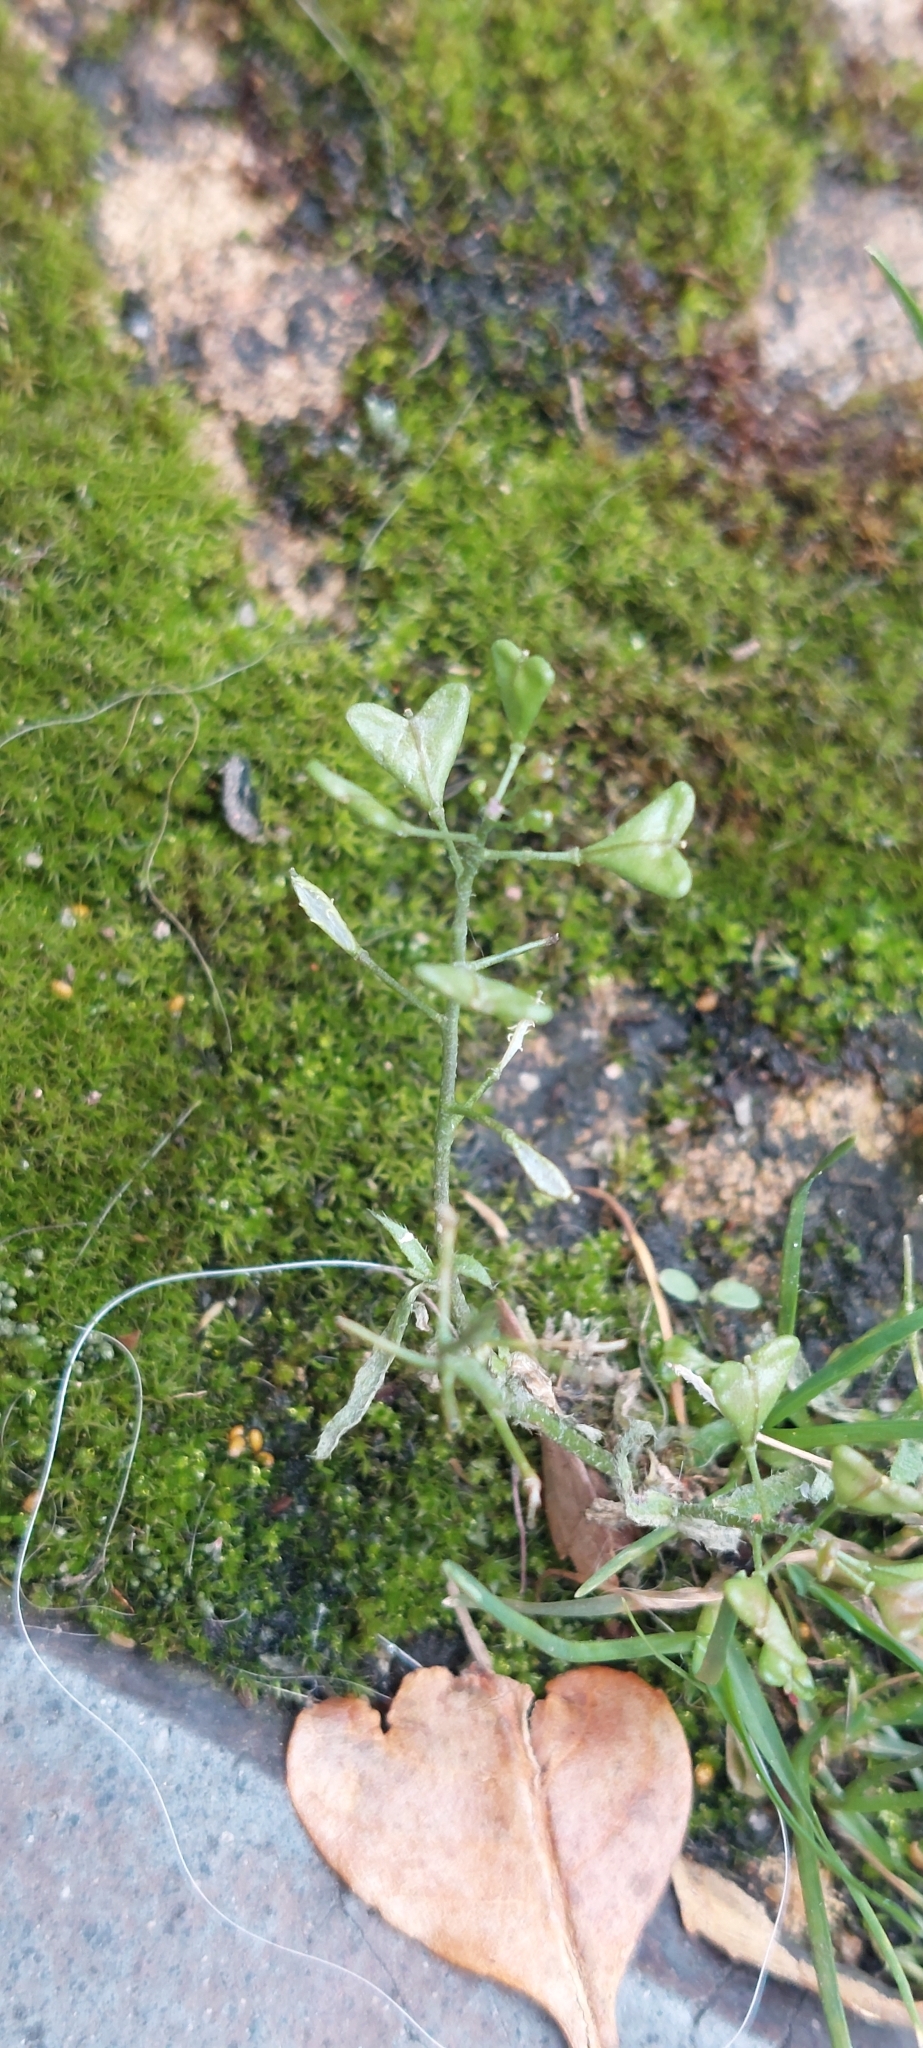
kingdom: Plantae
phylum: Tracheophyta
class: Magnoliopsida
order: Brassicales
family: Brassicaceae
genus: Capsella
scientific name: Capsella bursa-pastoris
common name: Shepherd's purse
